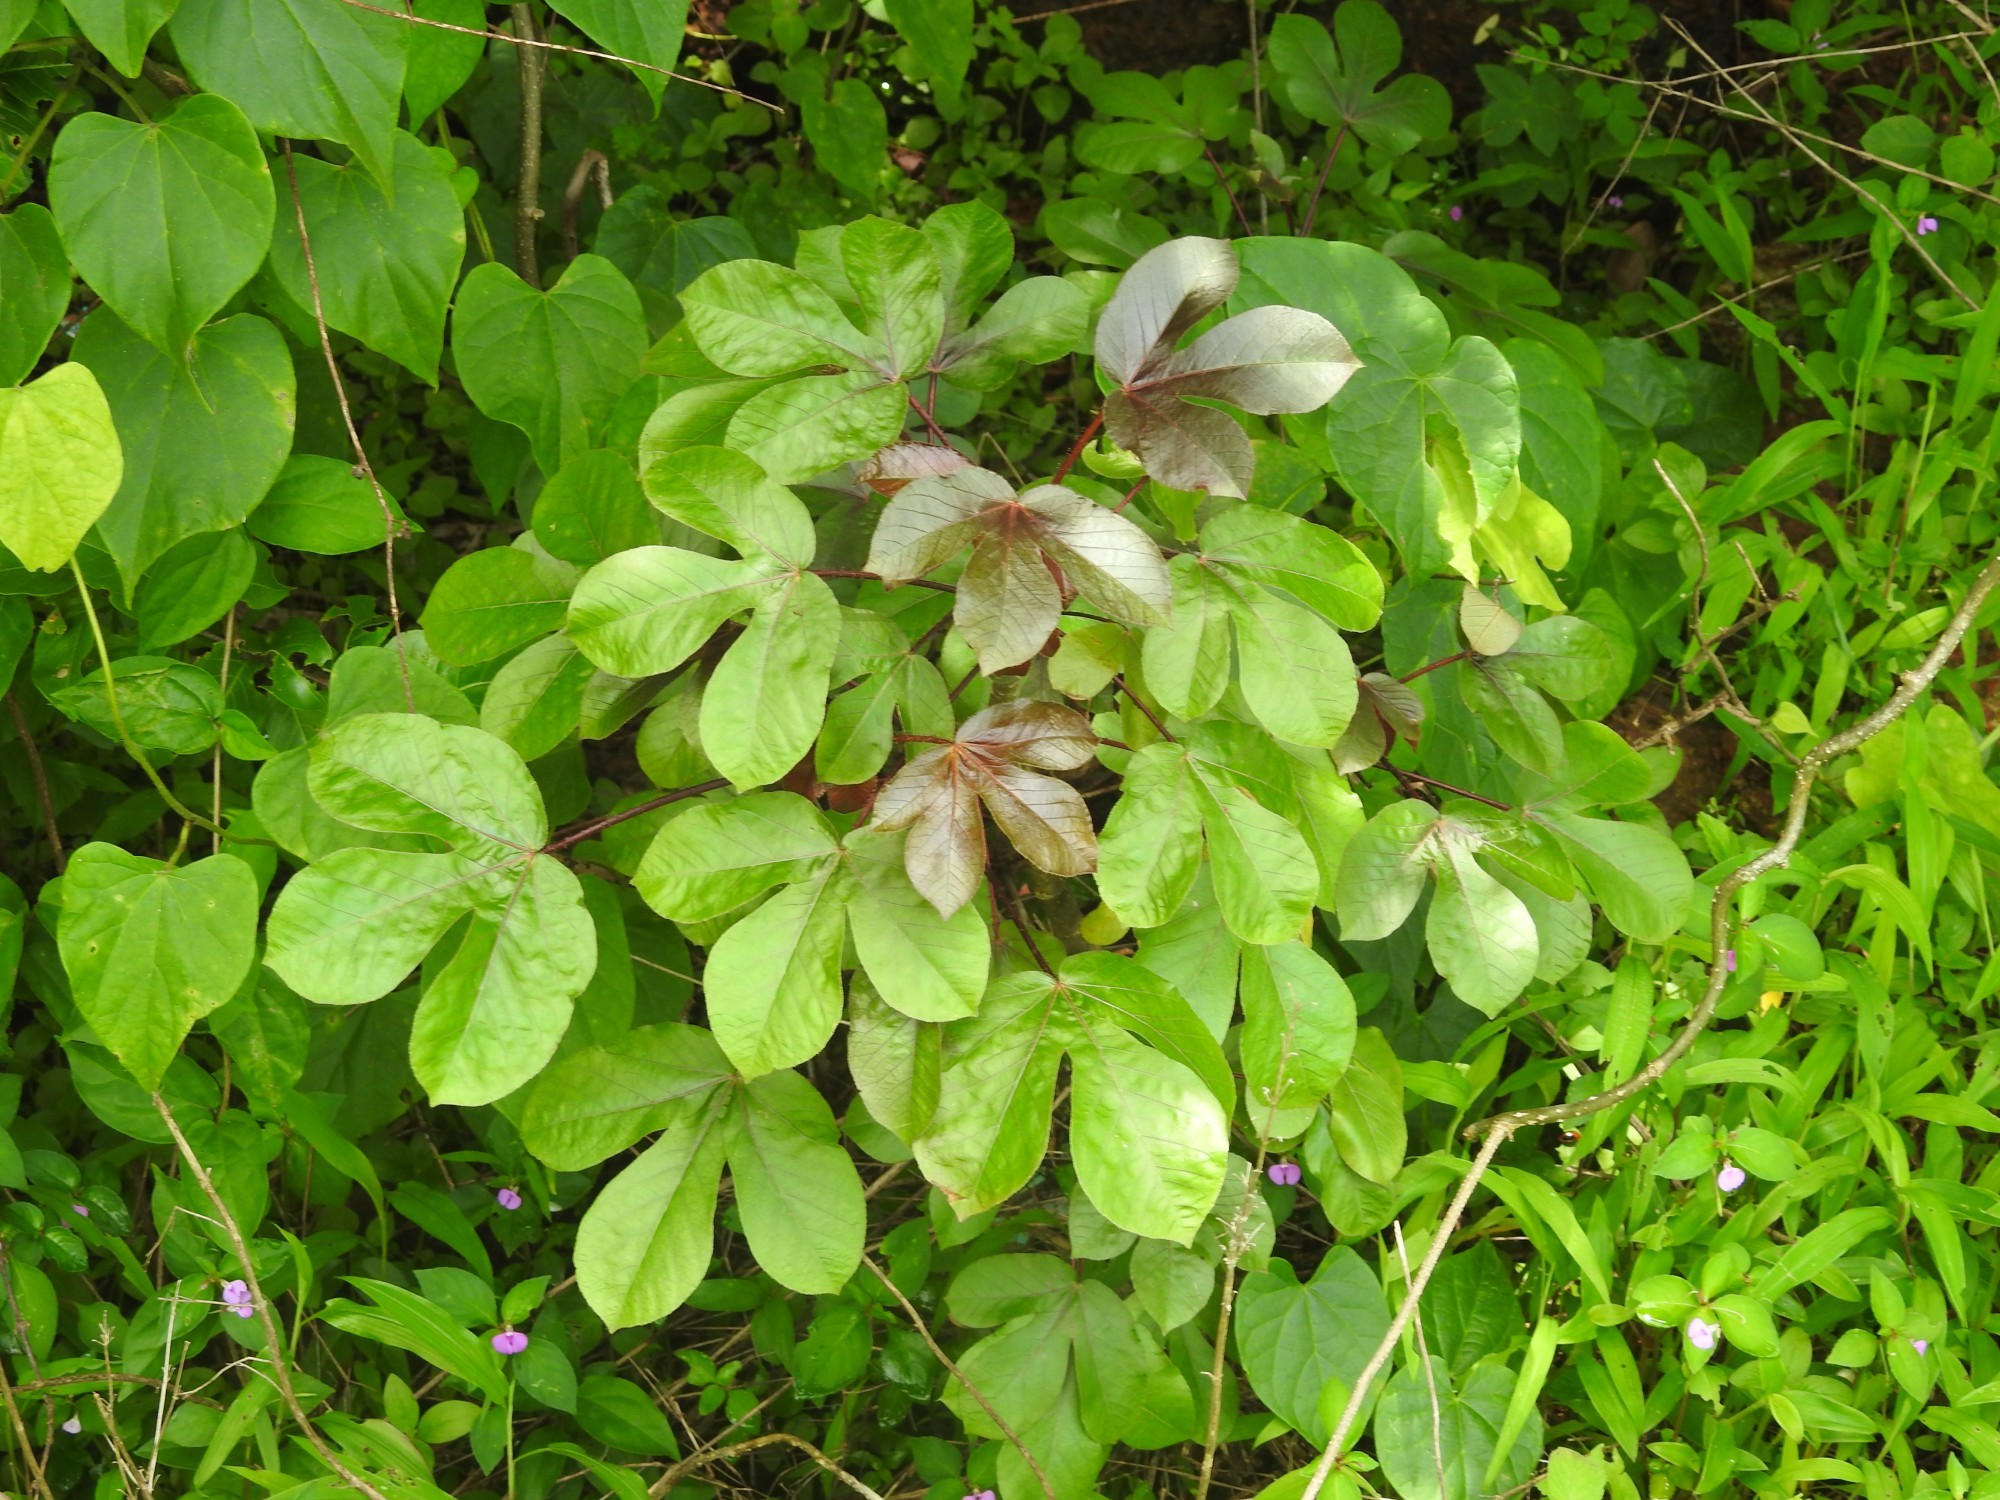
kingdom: Plantae
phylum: Tracheophyta
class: Magnoliopsida
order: Malpighiales
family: Euphorbiaceae
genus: Jatropha
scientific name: Jatropha gossypiifolia
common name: Bellyache bush
